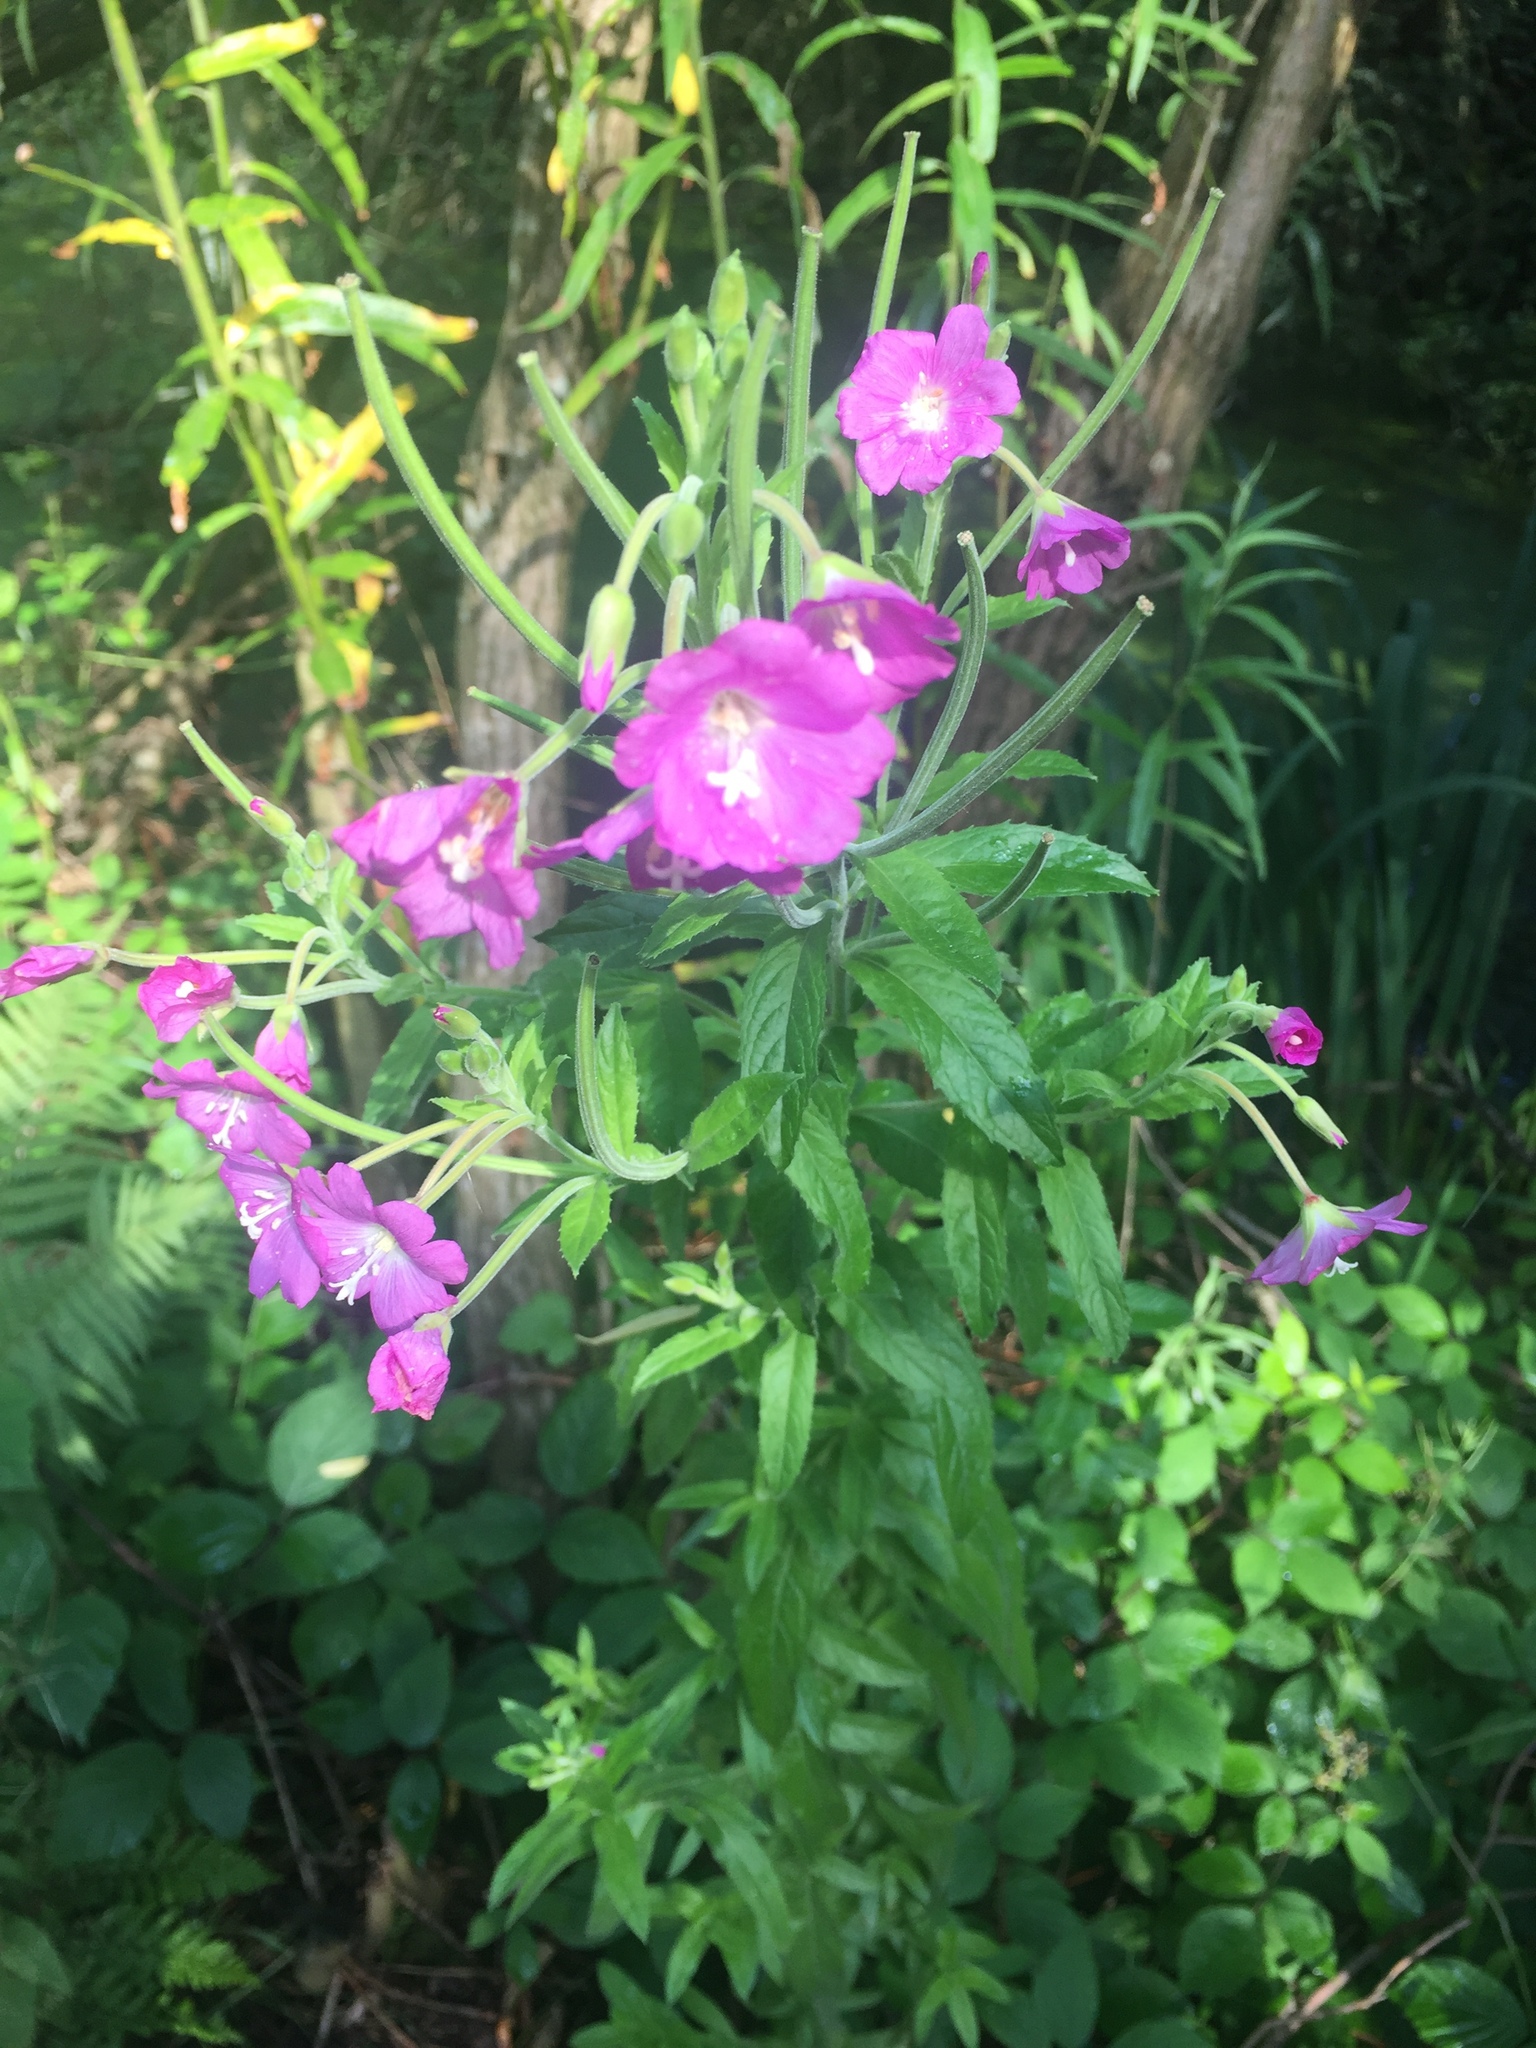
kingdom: Plantae
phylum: Tracheophyta
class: Magnoliopsida
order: Myrtales
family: Onagraceae
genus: Epilobium
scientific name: Epilobium hirsutum
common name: Great willowherb
